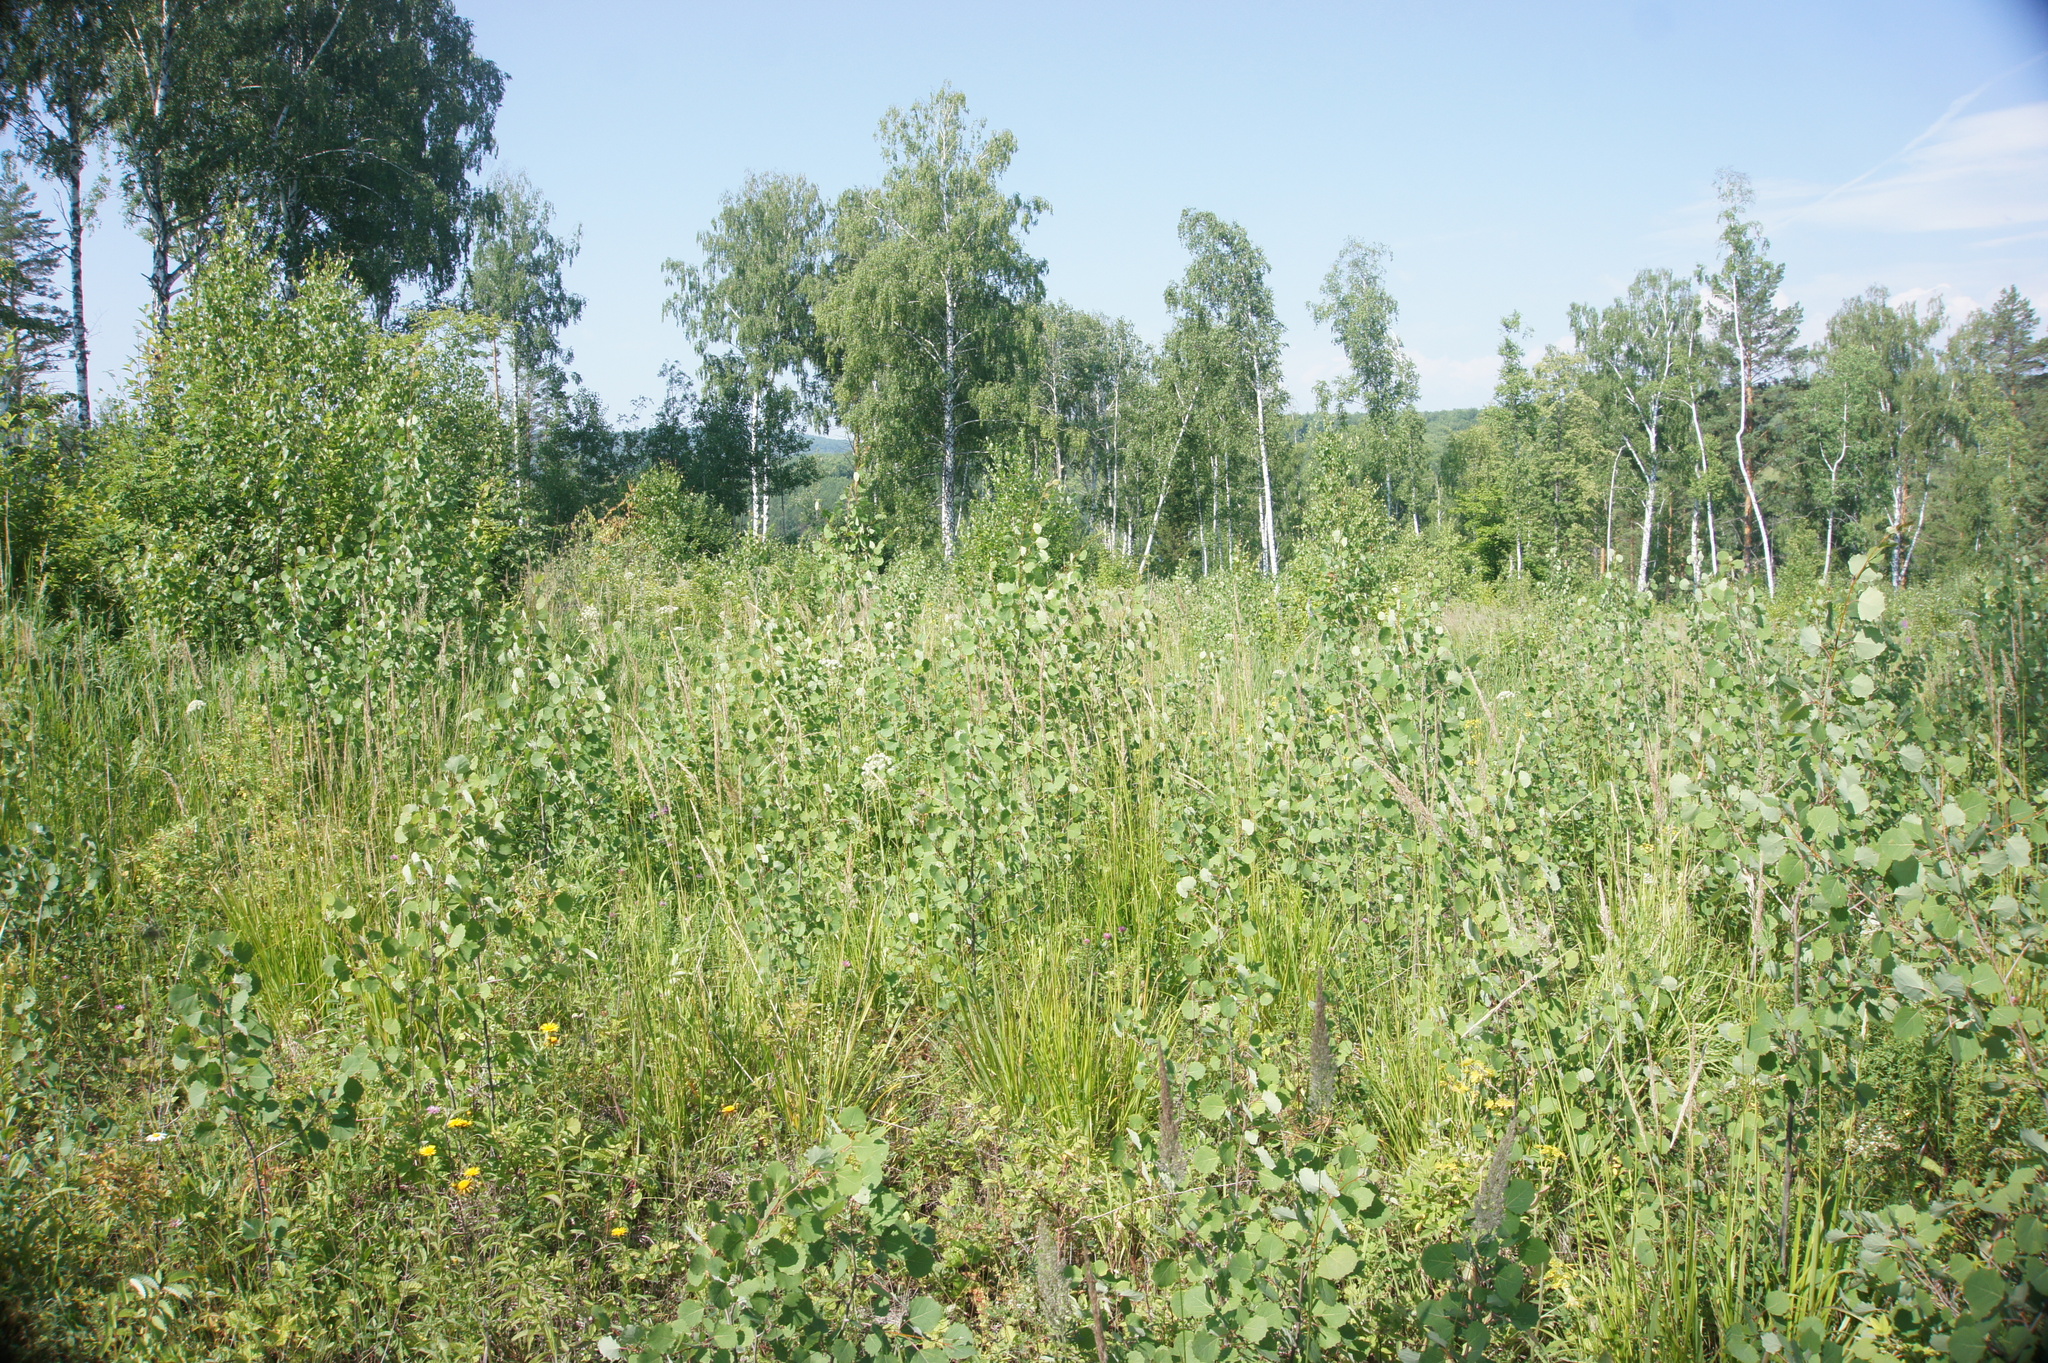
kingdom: Plantae
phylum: Tracheophyta
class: Magnoliopsida
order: Malpighiales
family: Salicaceae
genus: Populus
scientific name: Populus tremula
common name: European aspen
